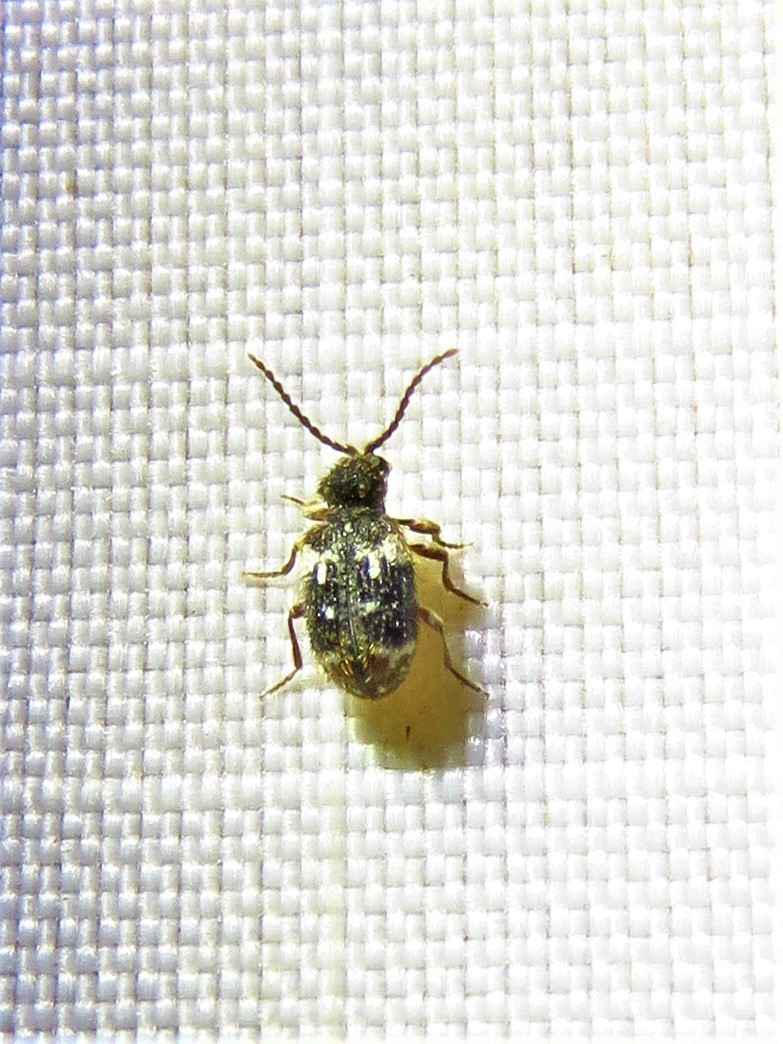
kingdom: Animalia
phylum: Arthropoda
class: Insecta
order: Coleoptera
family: Ptinidae
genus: Ptinus
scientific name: Ptinus bimaculatus
